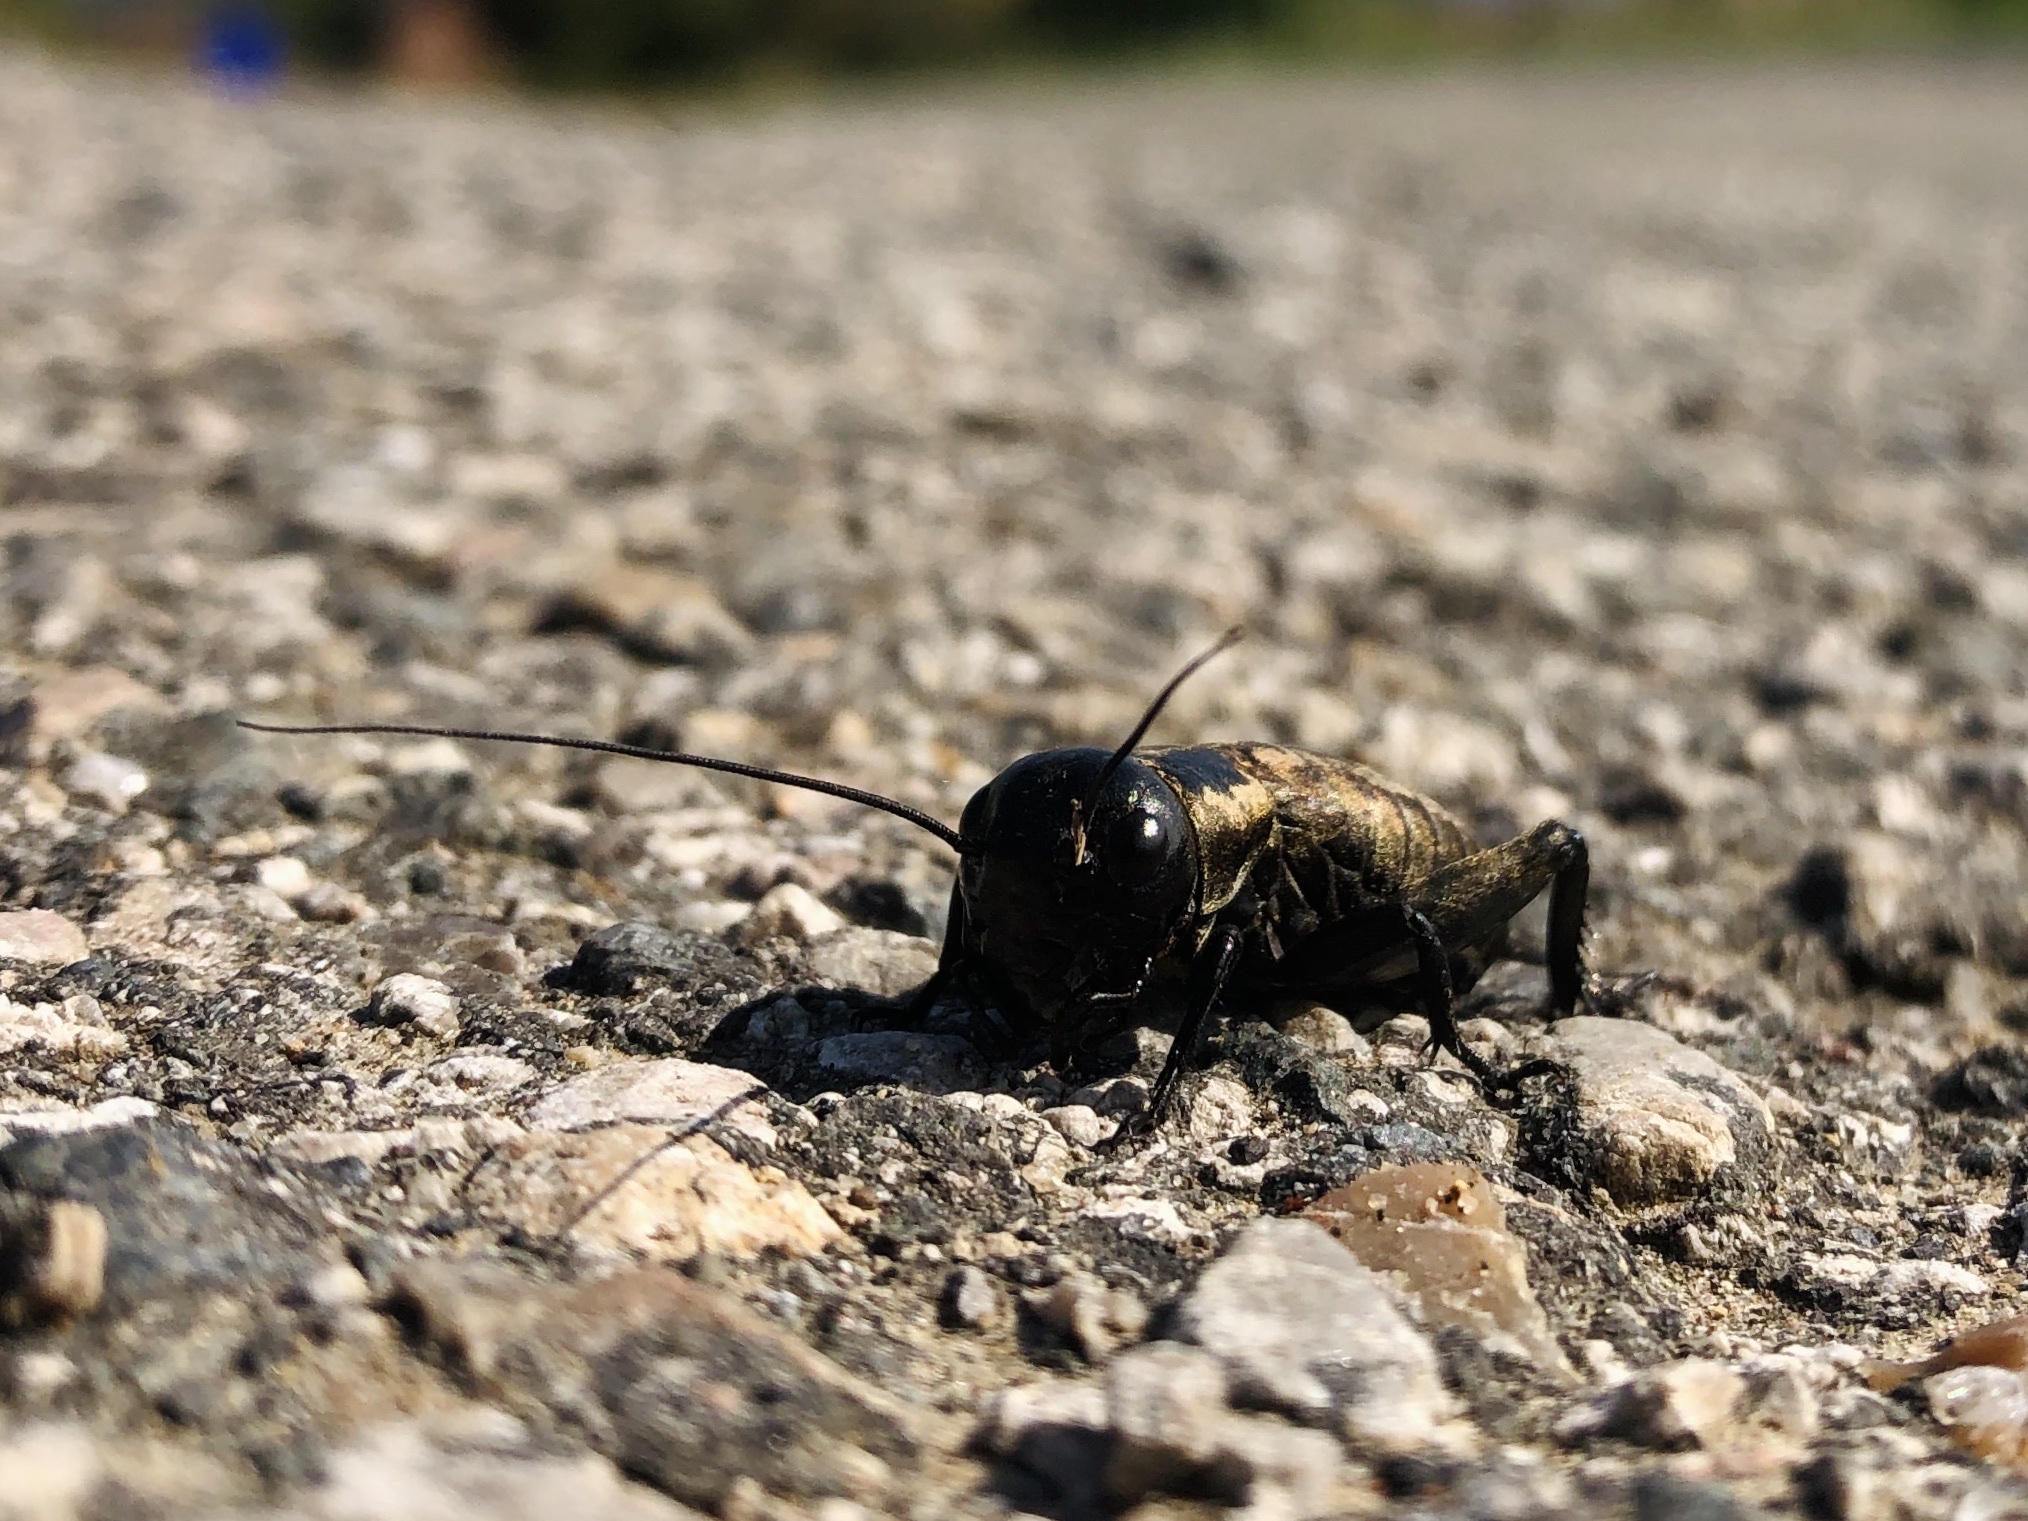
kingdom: Animalia
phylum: Arthropoda
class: Insecta
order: Orthoptera
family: Gryllidae
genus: Gryllus
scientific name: Gryllus campestris
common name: Field cricket
